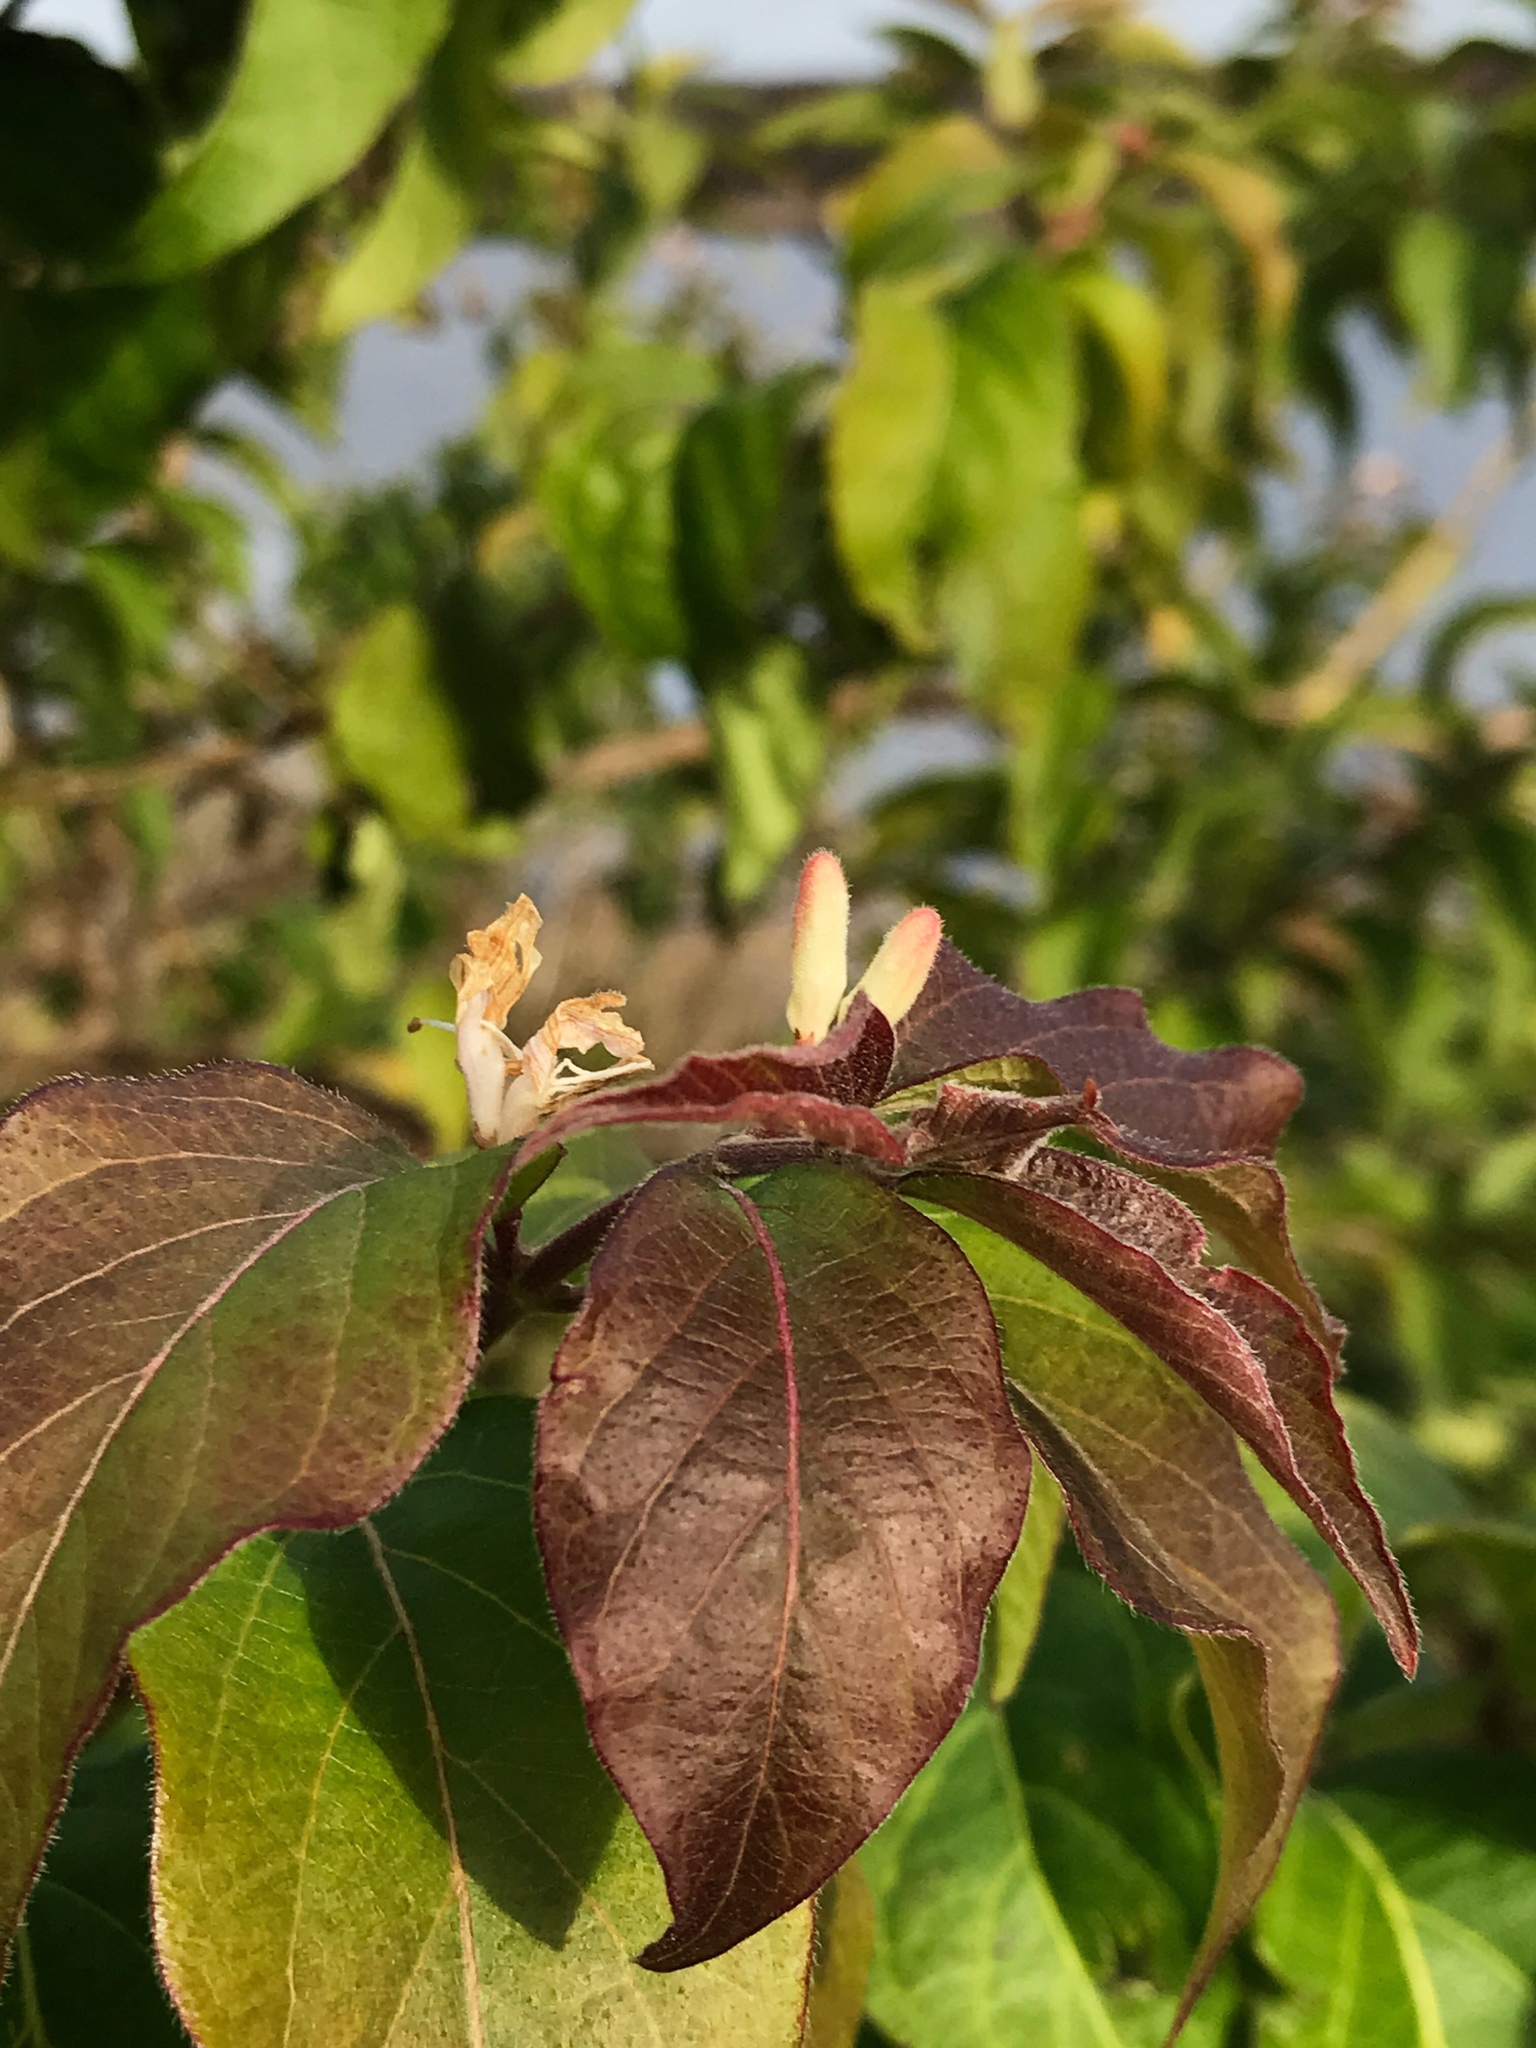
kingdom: Plantae
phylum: Tracheophyta
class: Magnoliopsida
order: Dipsacales
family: Caprifoliaceae
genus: Lonicera
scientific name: Lonicera maackii
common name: Amur honeysuckle
